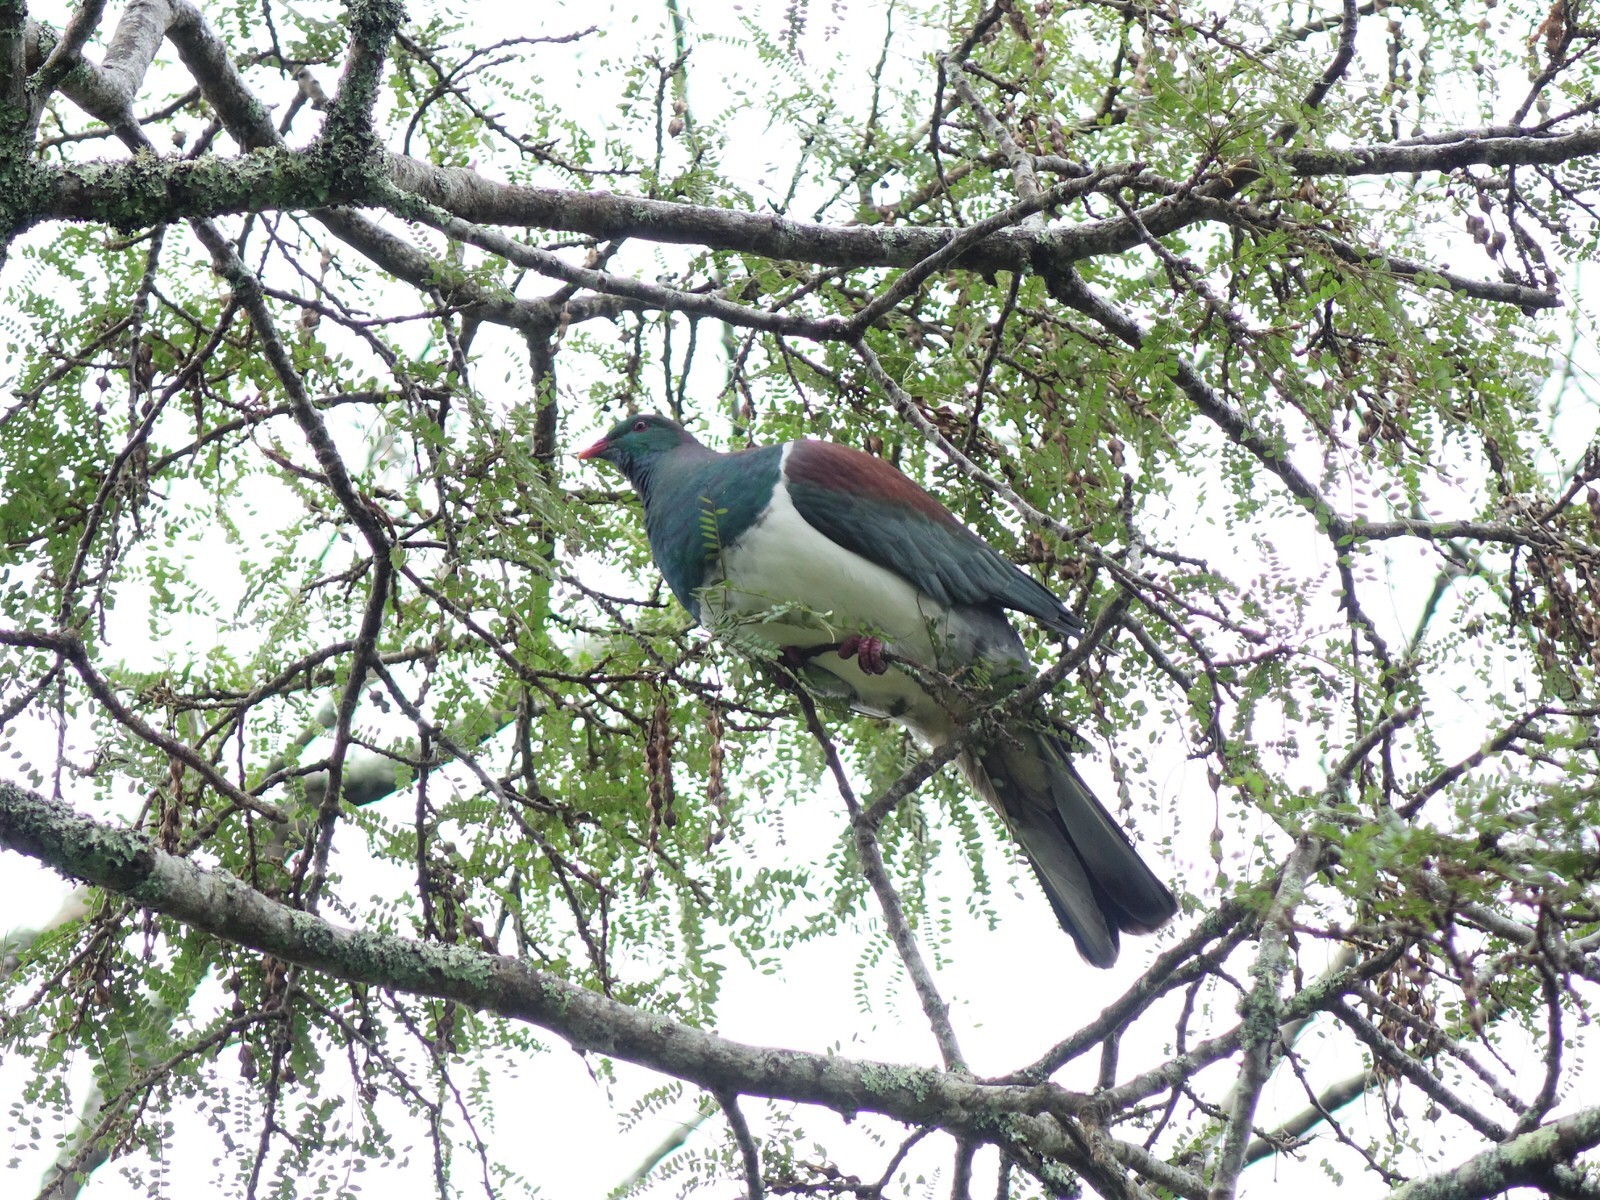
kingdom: Animalia
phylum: Chordata
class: Aves
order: Columbiformes
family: Columbidae
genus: Hemiphaga
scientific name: Hemiphaga novaeseelandiae
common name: New zealand pigeon
